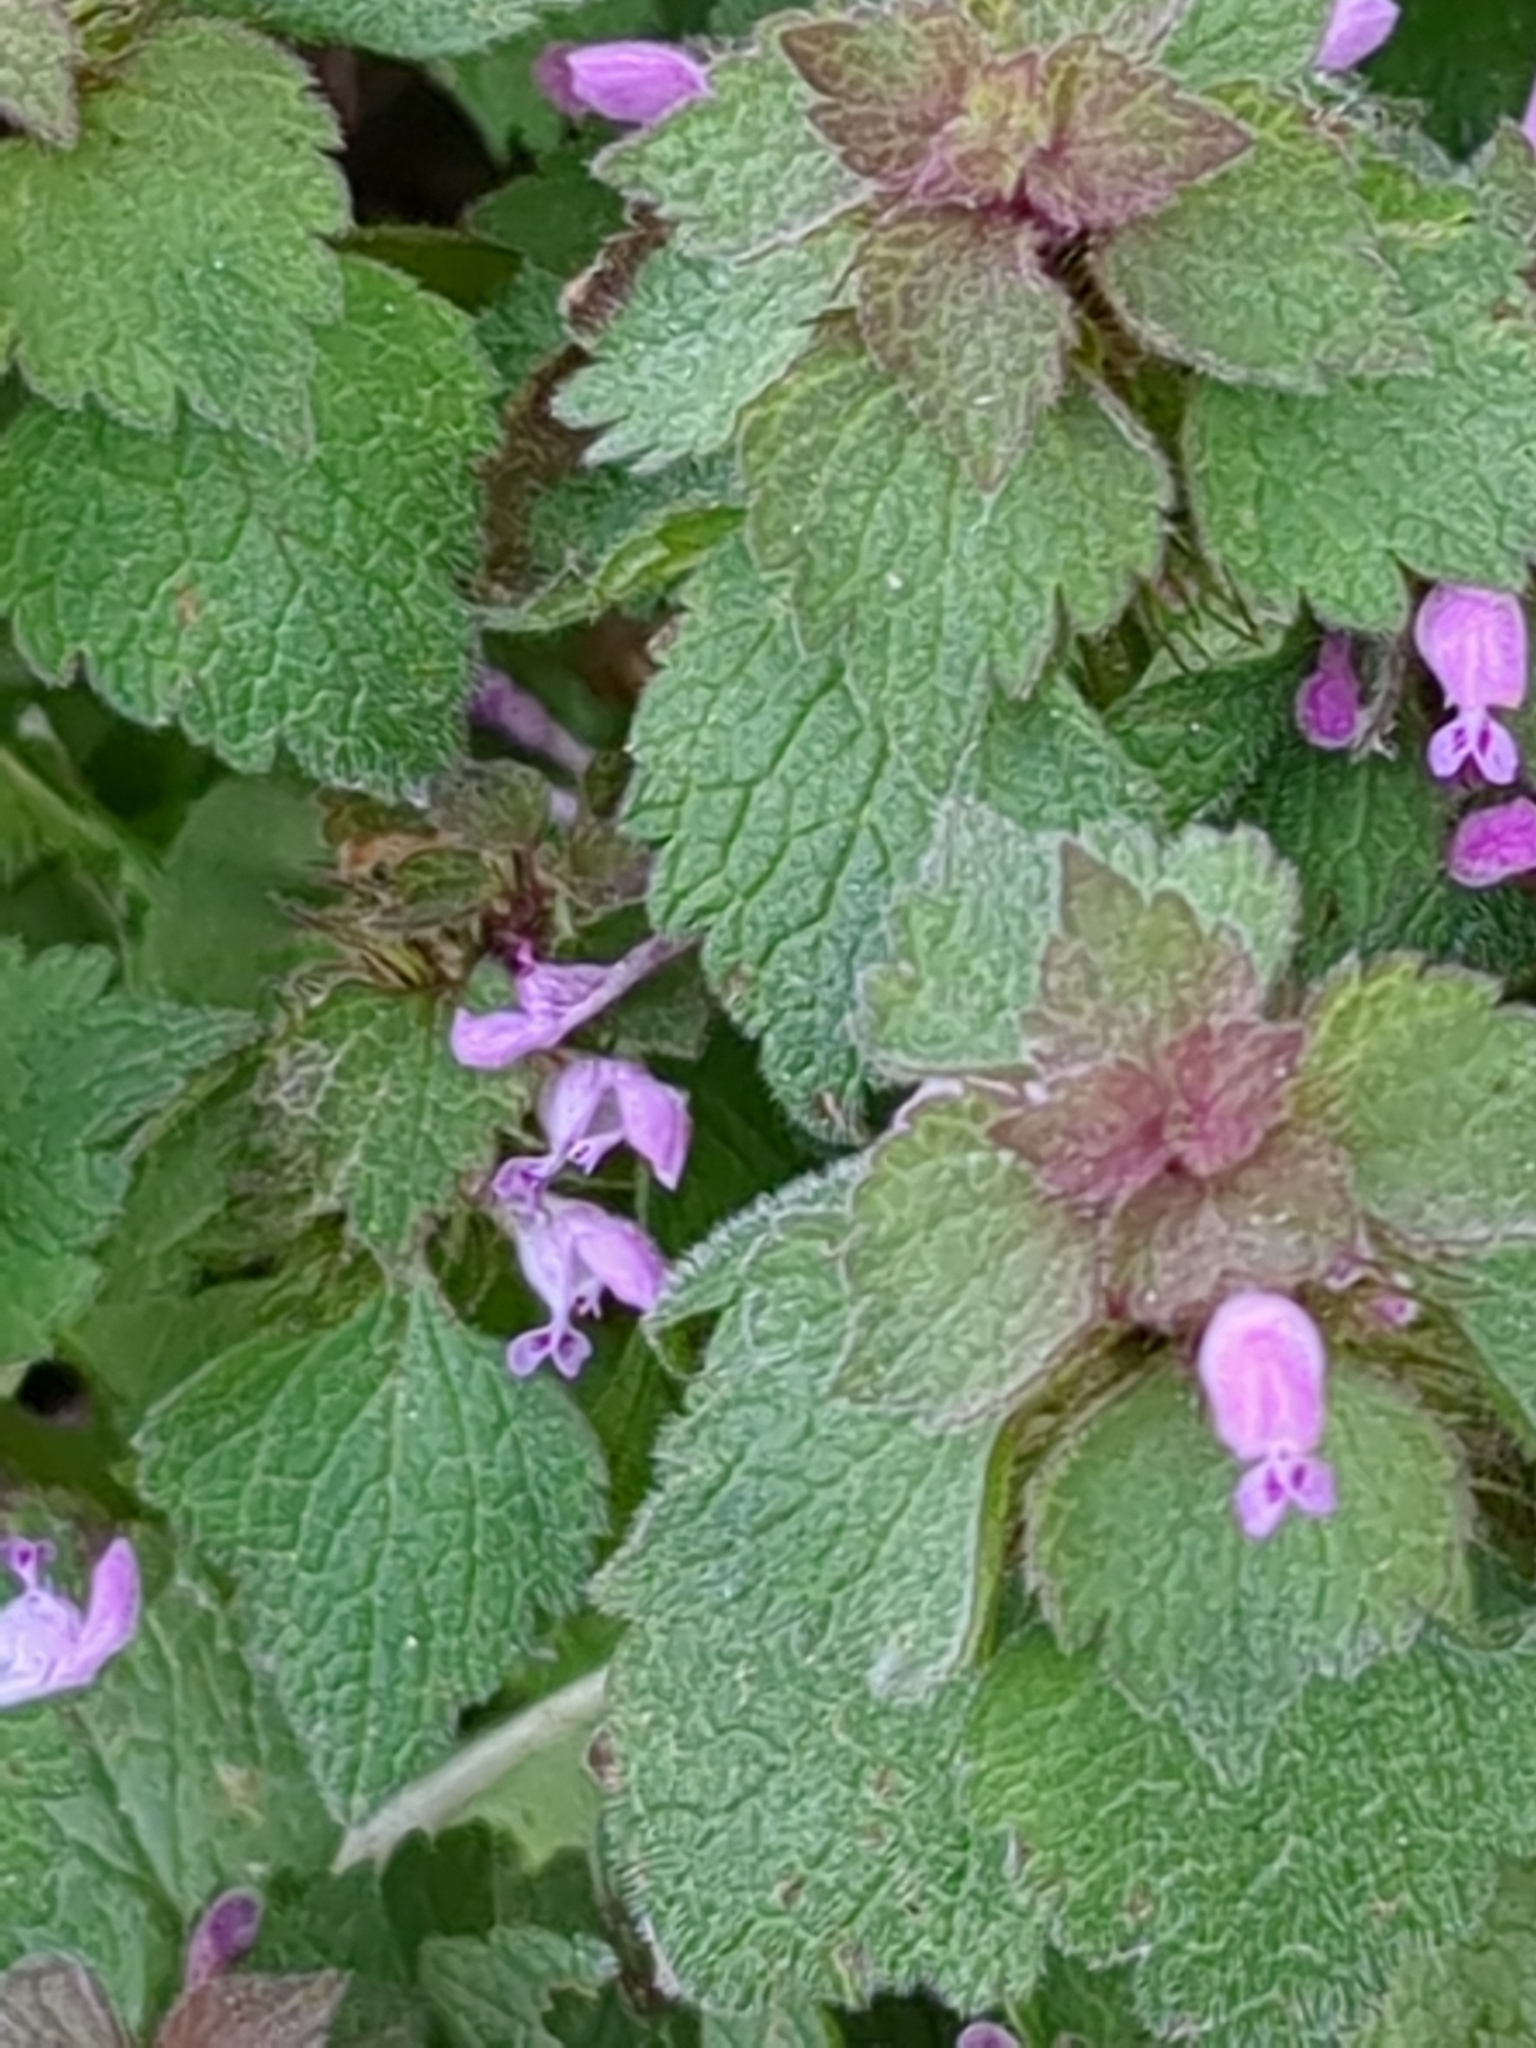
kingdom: Plantae
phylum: Tracheophyta
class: Magnoliopsida
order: Lamiales
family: Lamiaceae
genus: Lamium
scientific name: Lamium purpureum
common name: Red dead-nettle
